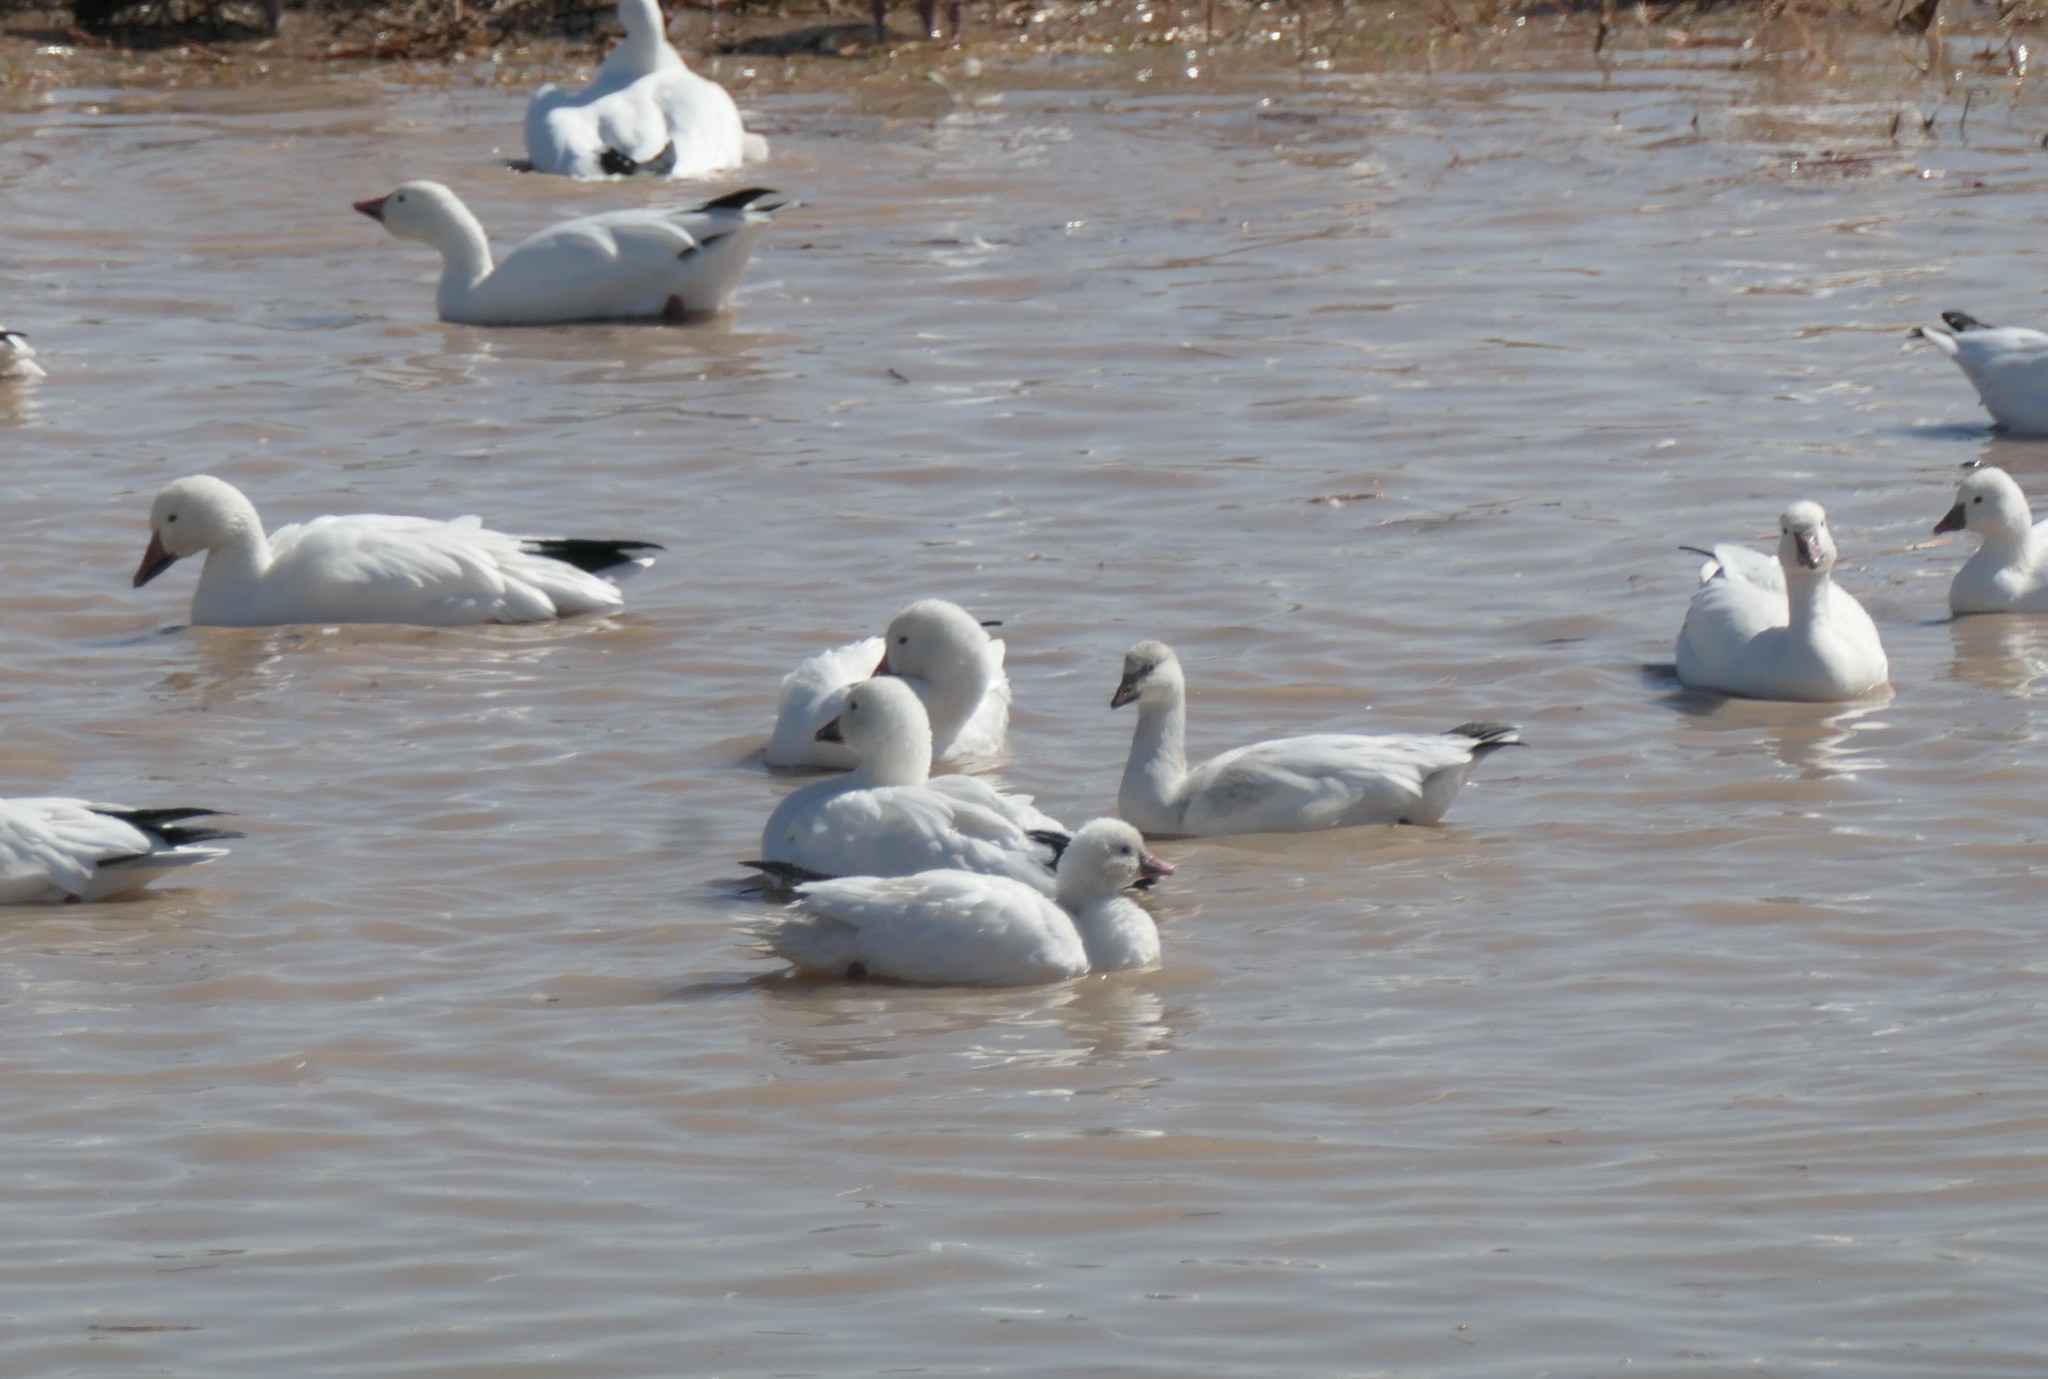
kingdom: Animalia
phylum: Chordata
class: Aves
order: Anseriformes
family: Anatidae
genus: Anser
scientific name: Anser rossii
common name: Ross's goose
